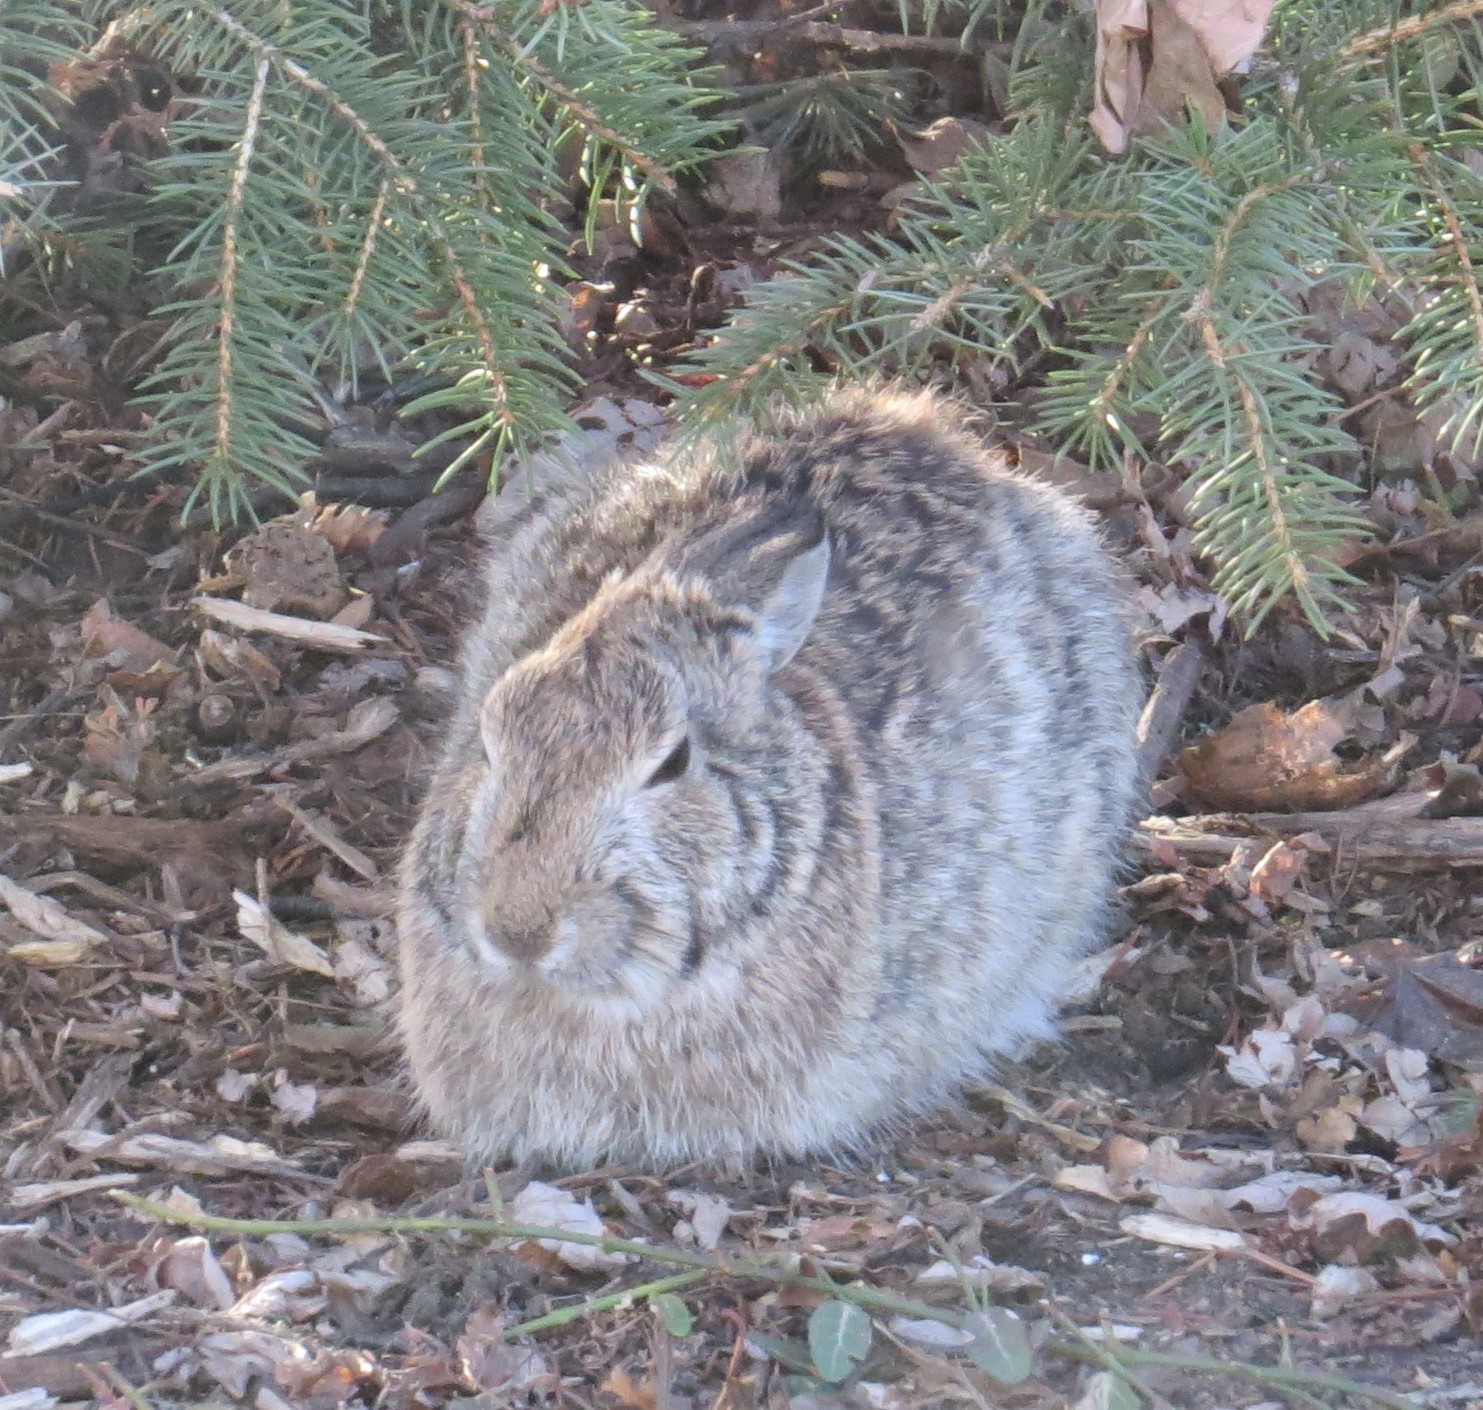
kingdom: Animalia
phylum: Chordata
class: Mammalia
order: Lagomorpha
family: Leporidae
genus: Sylvilagus
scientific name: Sylvilagus floridanus
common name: Eastern cottontail
